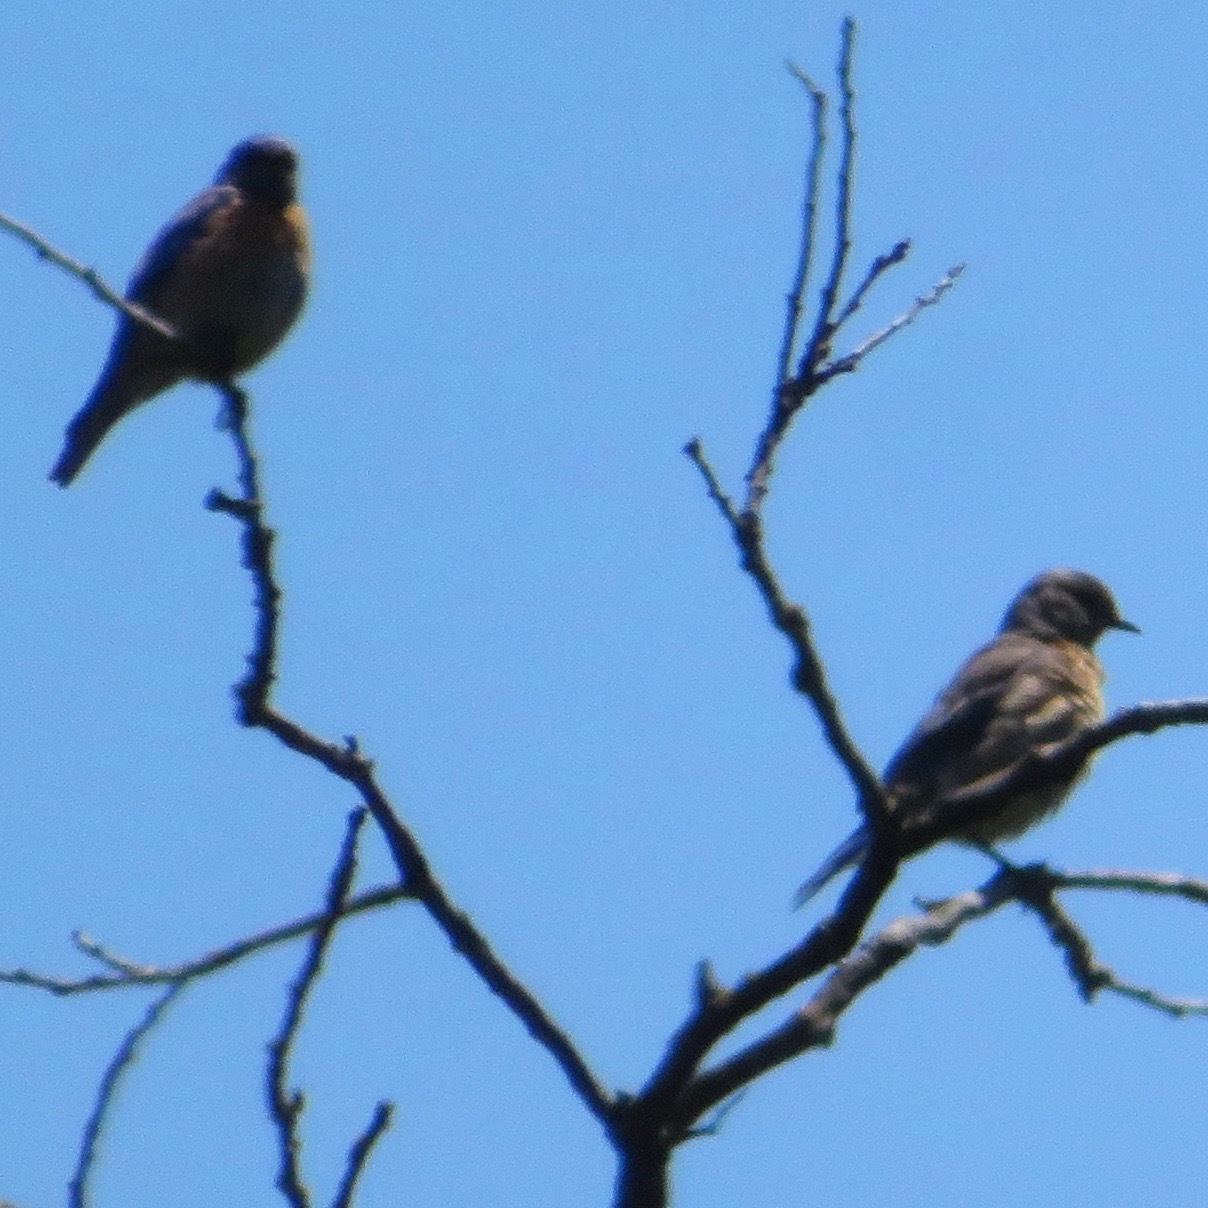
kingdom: Animalia
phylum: Chordata
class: Aves
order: Passeriformes
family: Turdidae
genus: Sialia
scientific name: Sialia mexicana
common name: Western bluebird
